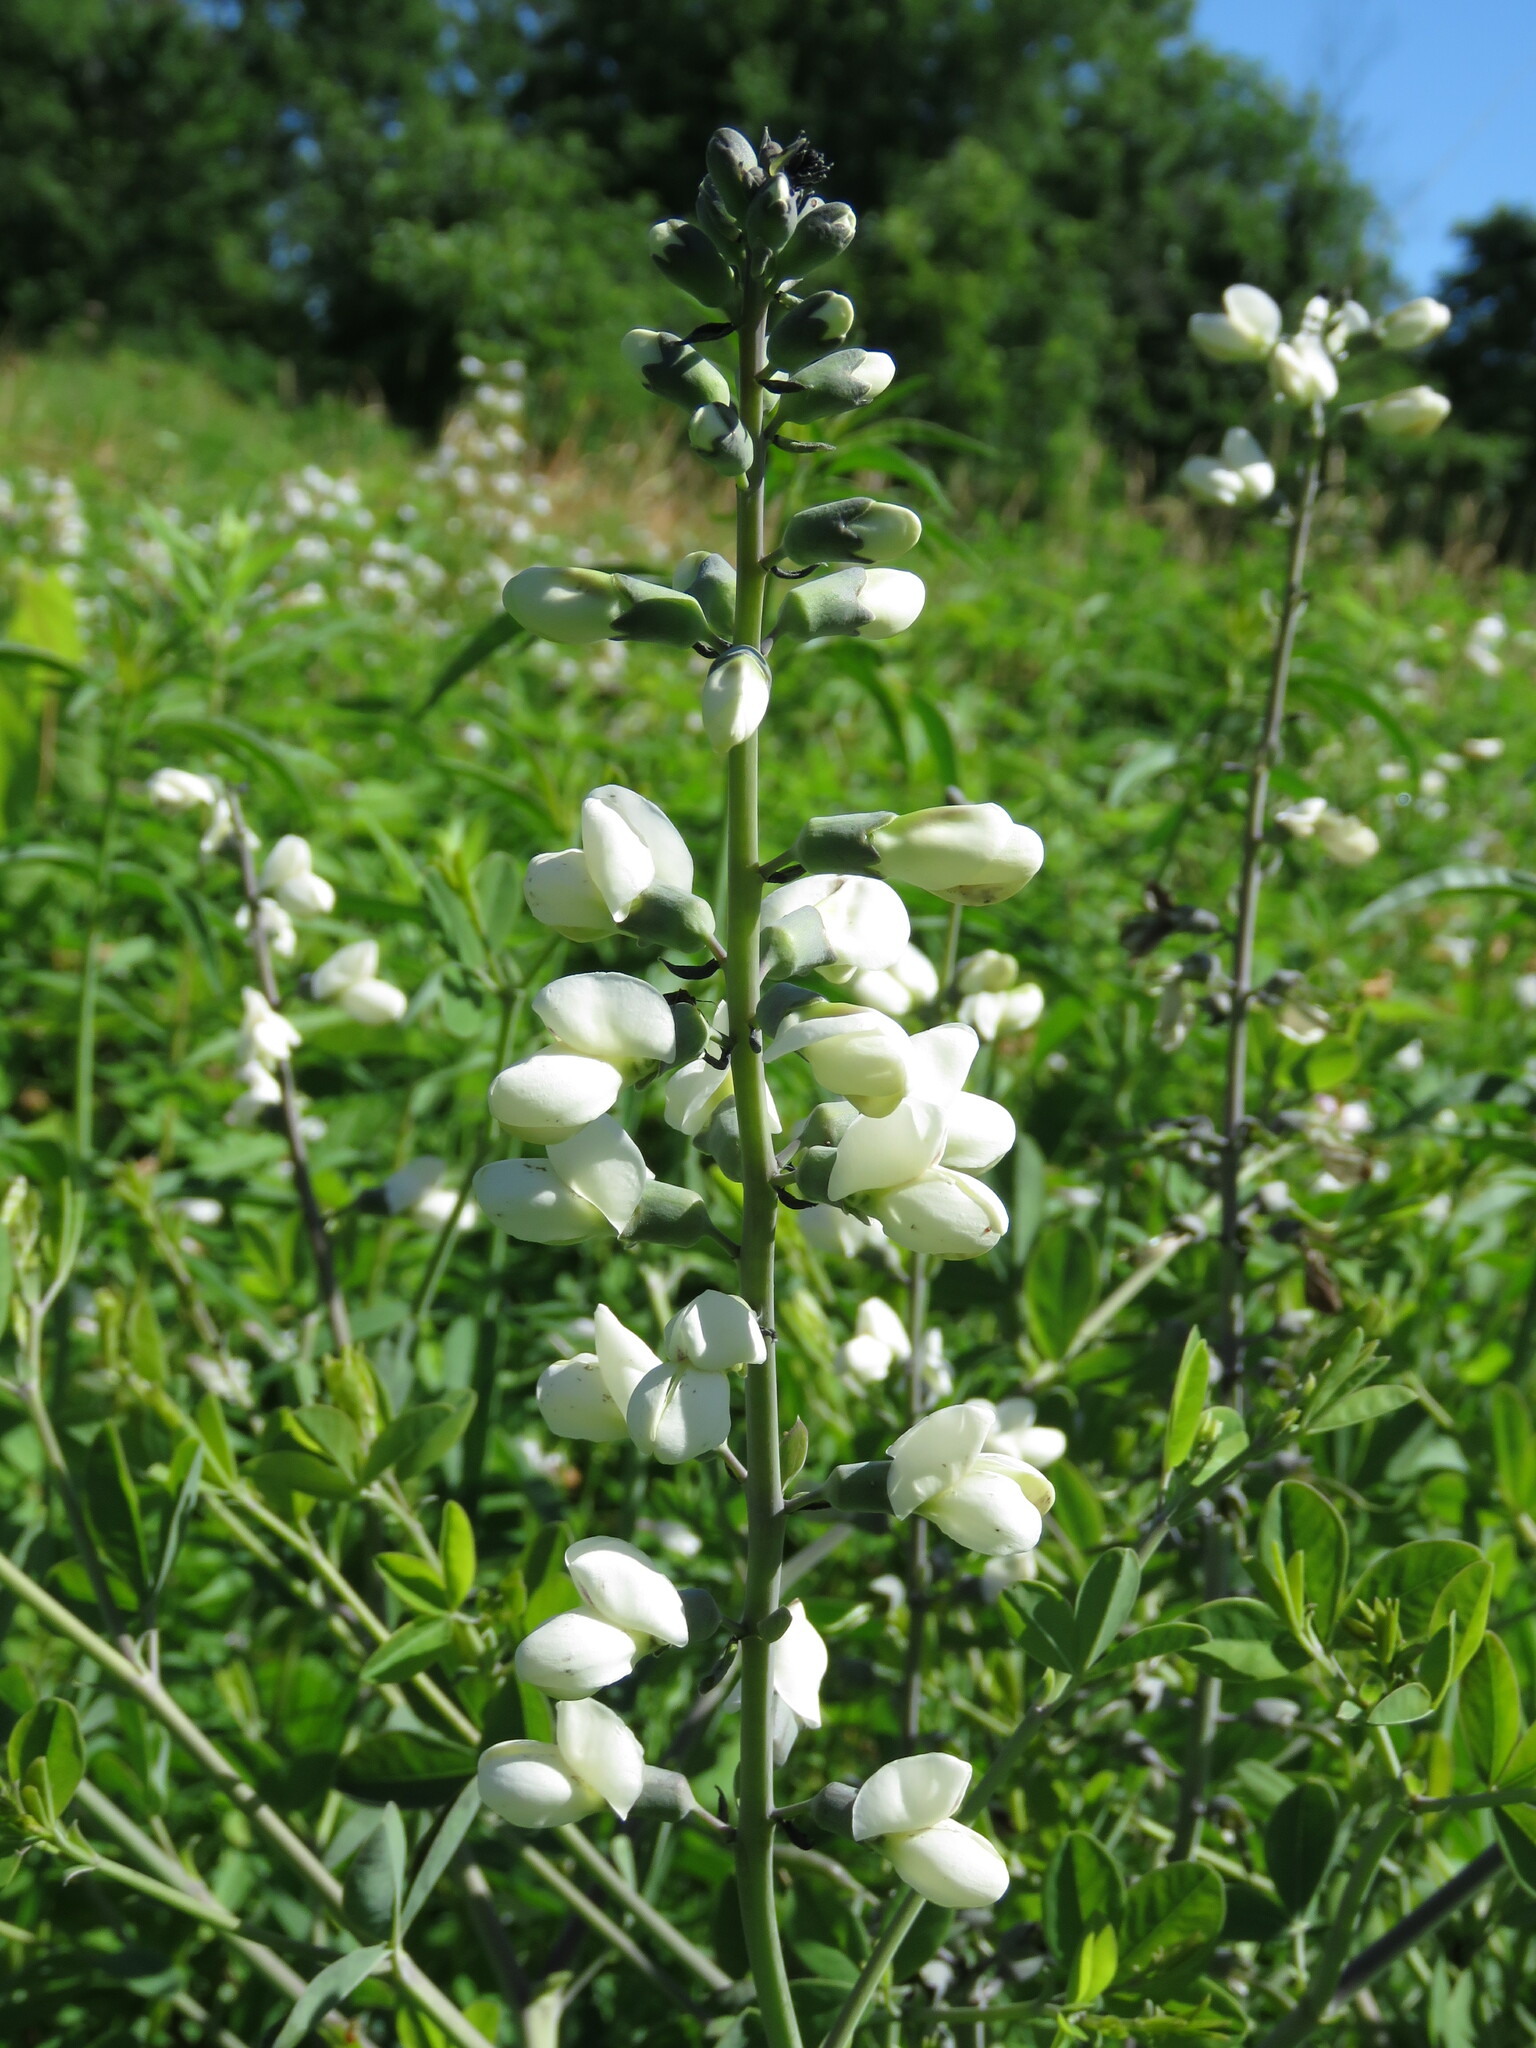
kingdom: Plantae
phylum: Tracheophyta
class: Magnoliopsida
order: Fabales
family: Fabaceae
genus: Baptisia
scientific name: Baptisia alba
